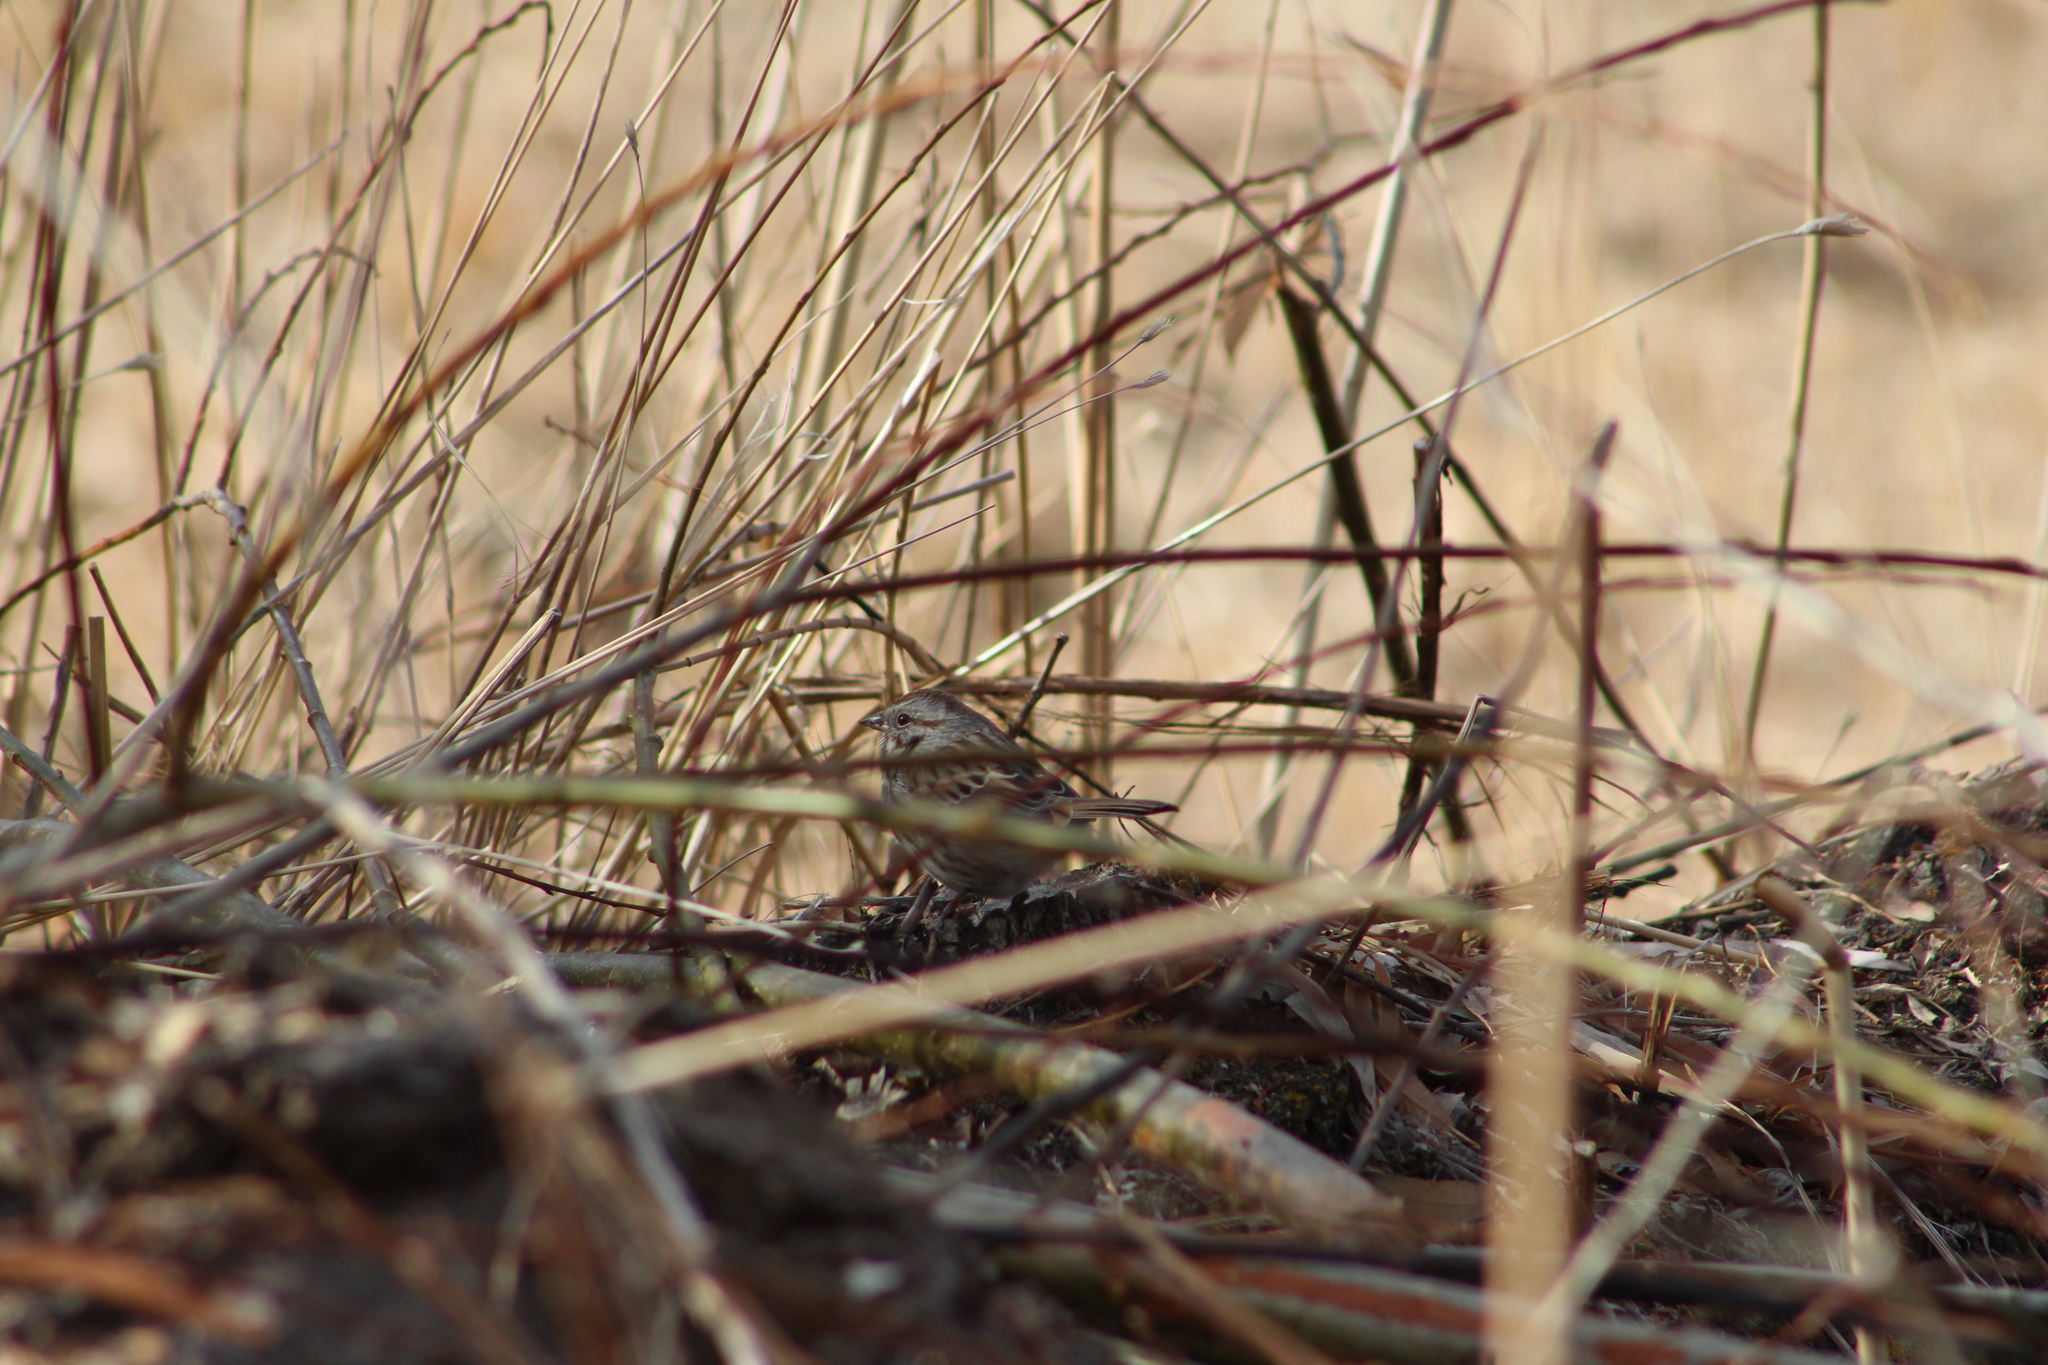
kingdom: Animalia
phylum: Chordata
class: Aves
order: Passeriformes
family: Passerellidae
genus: Melospiza
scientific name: Melospiza melodia
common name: Song sparrow
